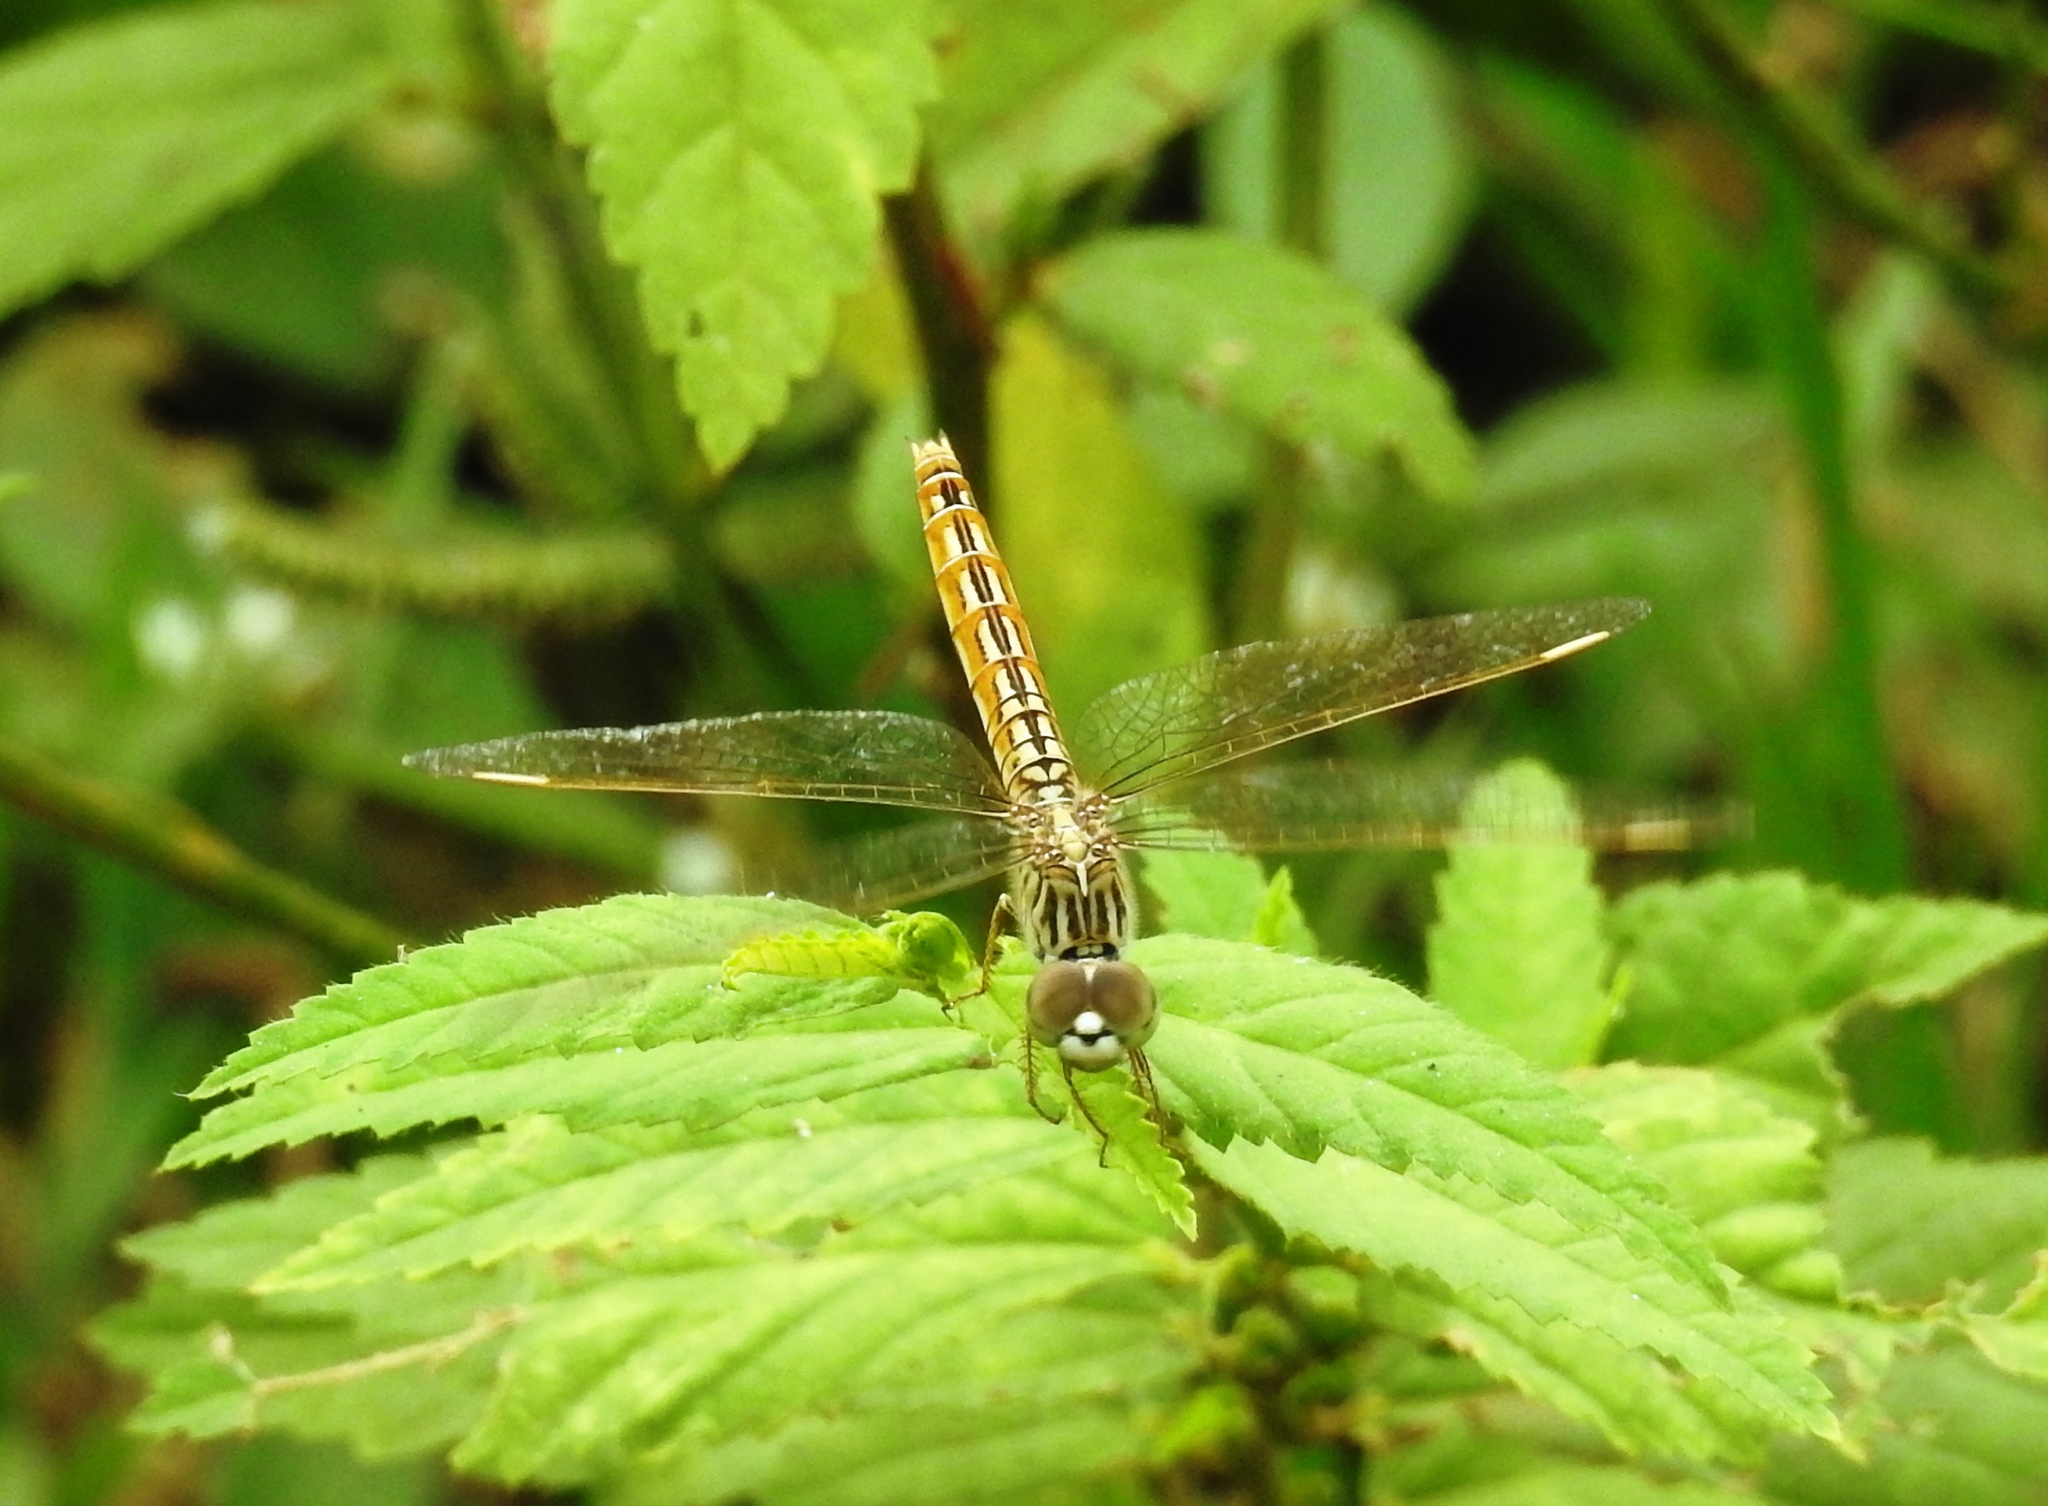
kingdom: Animalia
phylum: Arthropoda
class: Insecta
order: Odonata
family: Libellulidae
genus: Brachythemis
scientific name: Brachythemis contaminata
